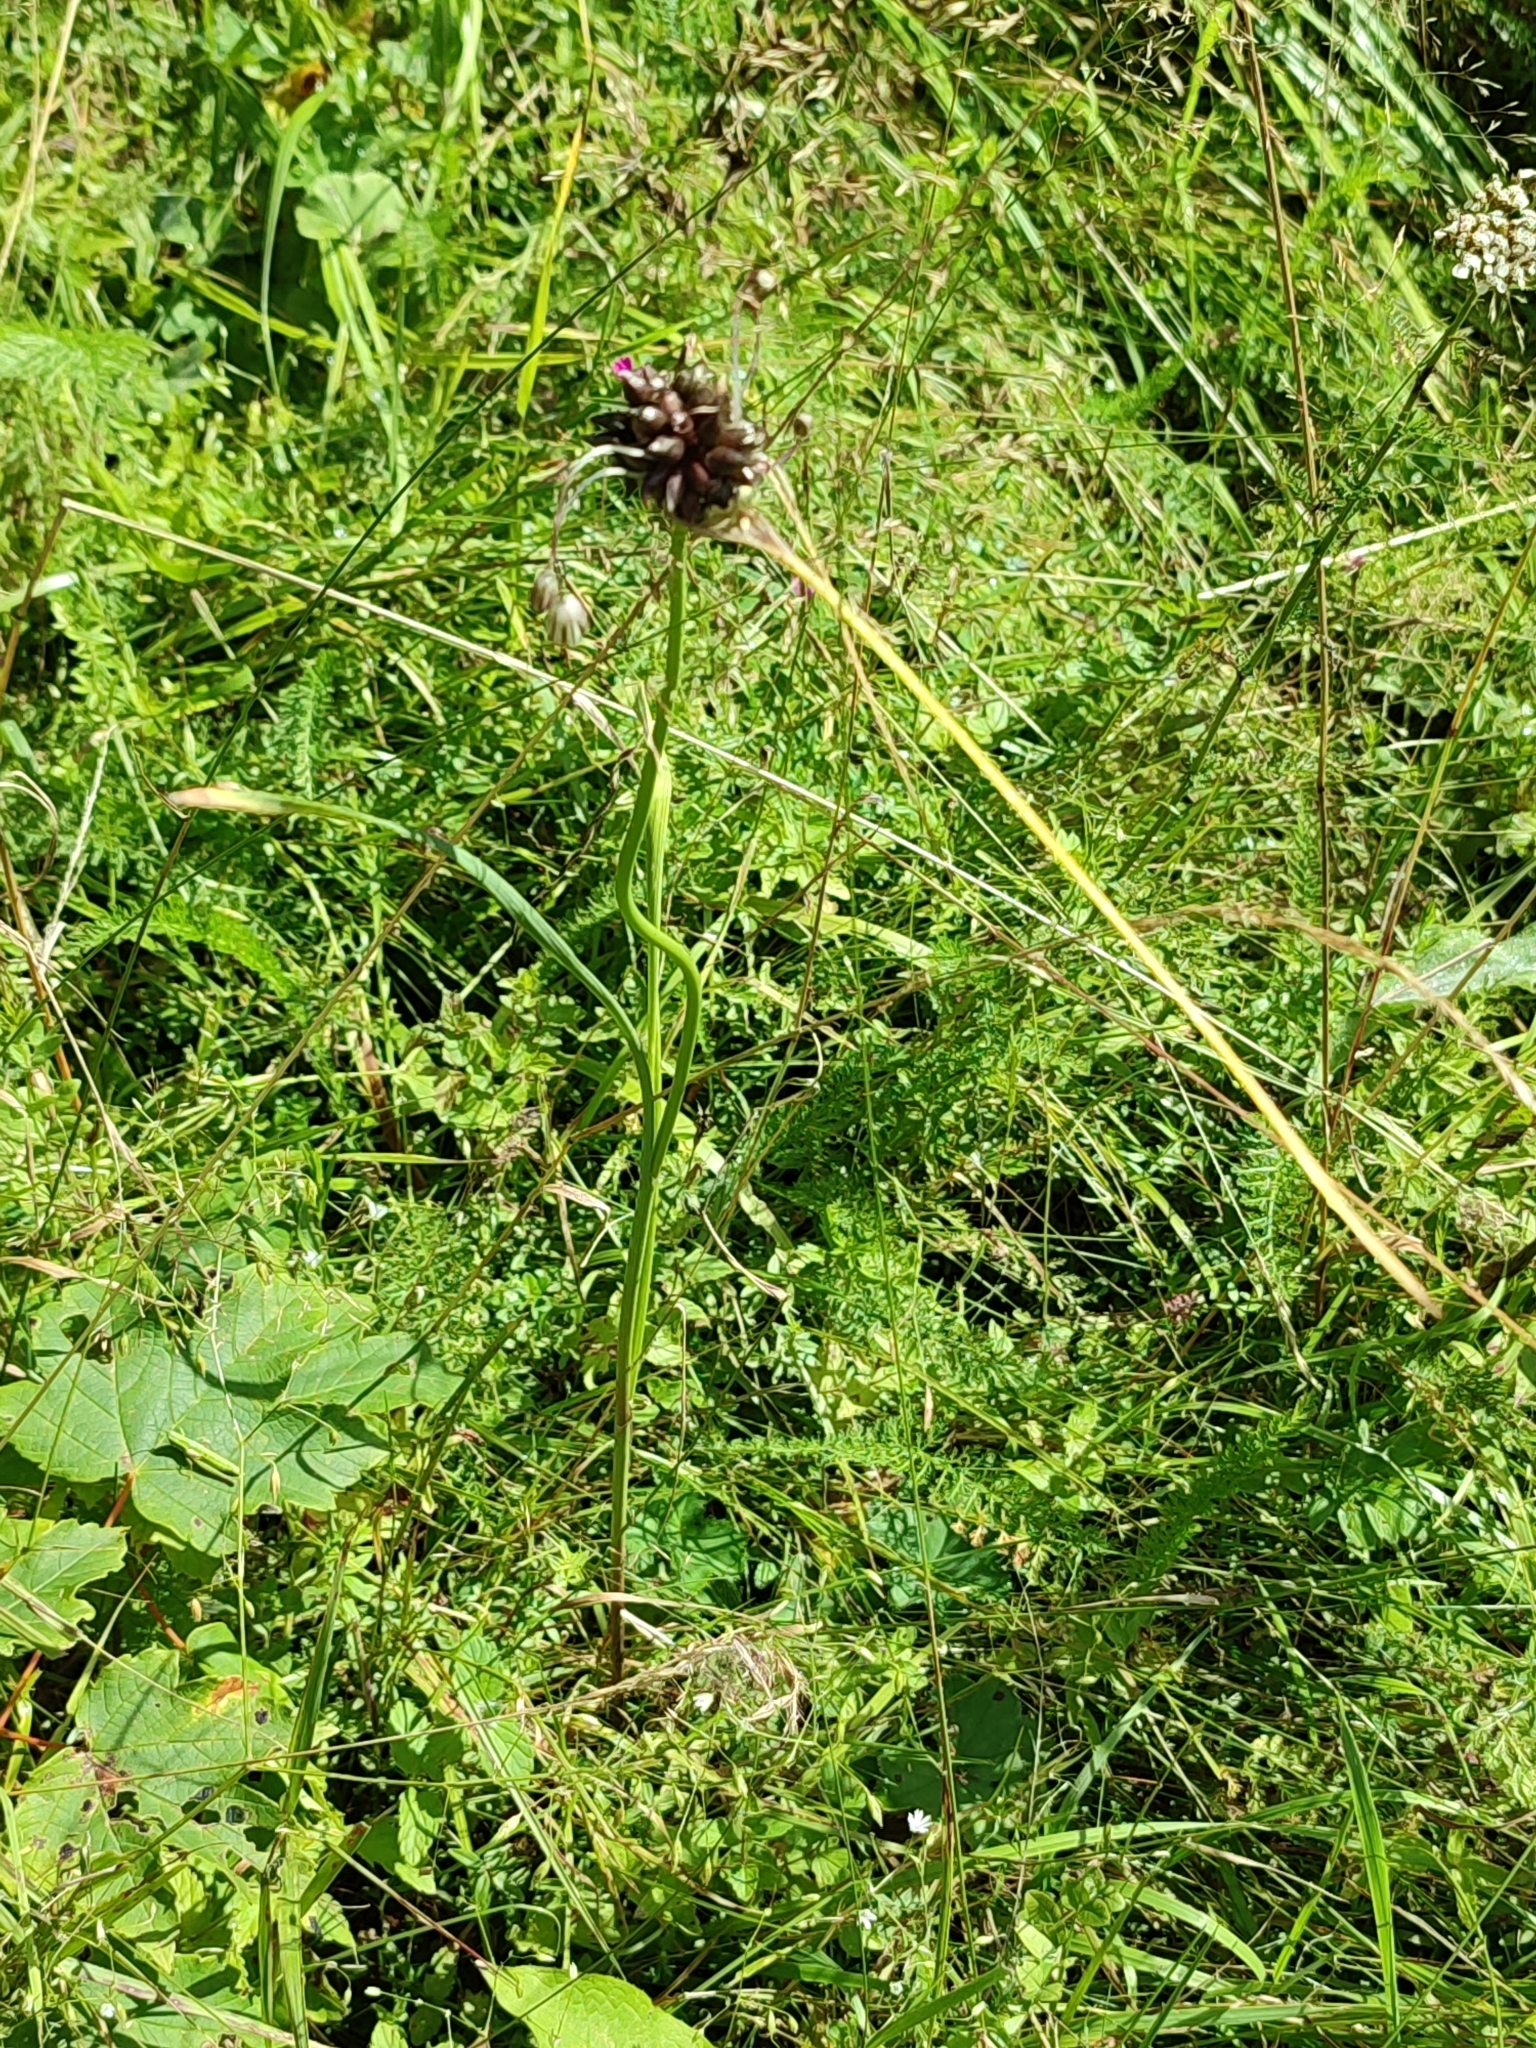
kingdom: Plantae
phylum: Tracheophyta
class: Liliopsida
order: Asparagales
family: Amaryllidaceae
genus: Allium
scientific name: Allium oleraceum
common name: Field garlic
